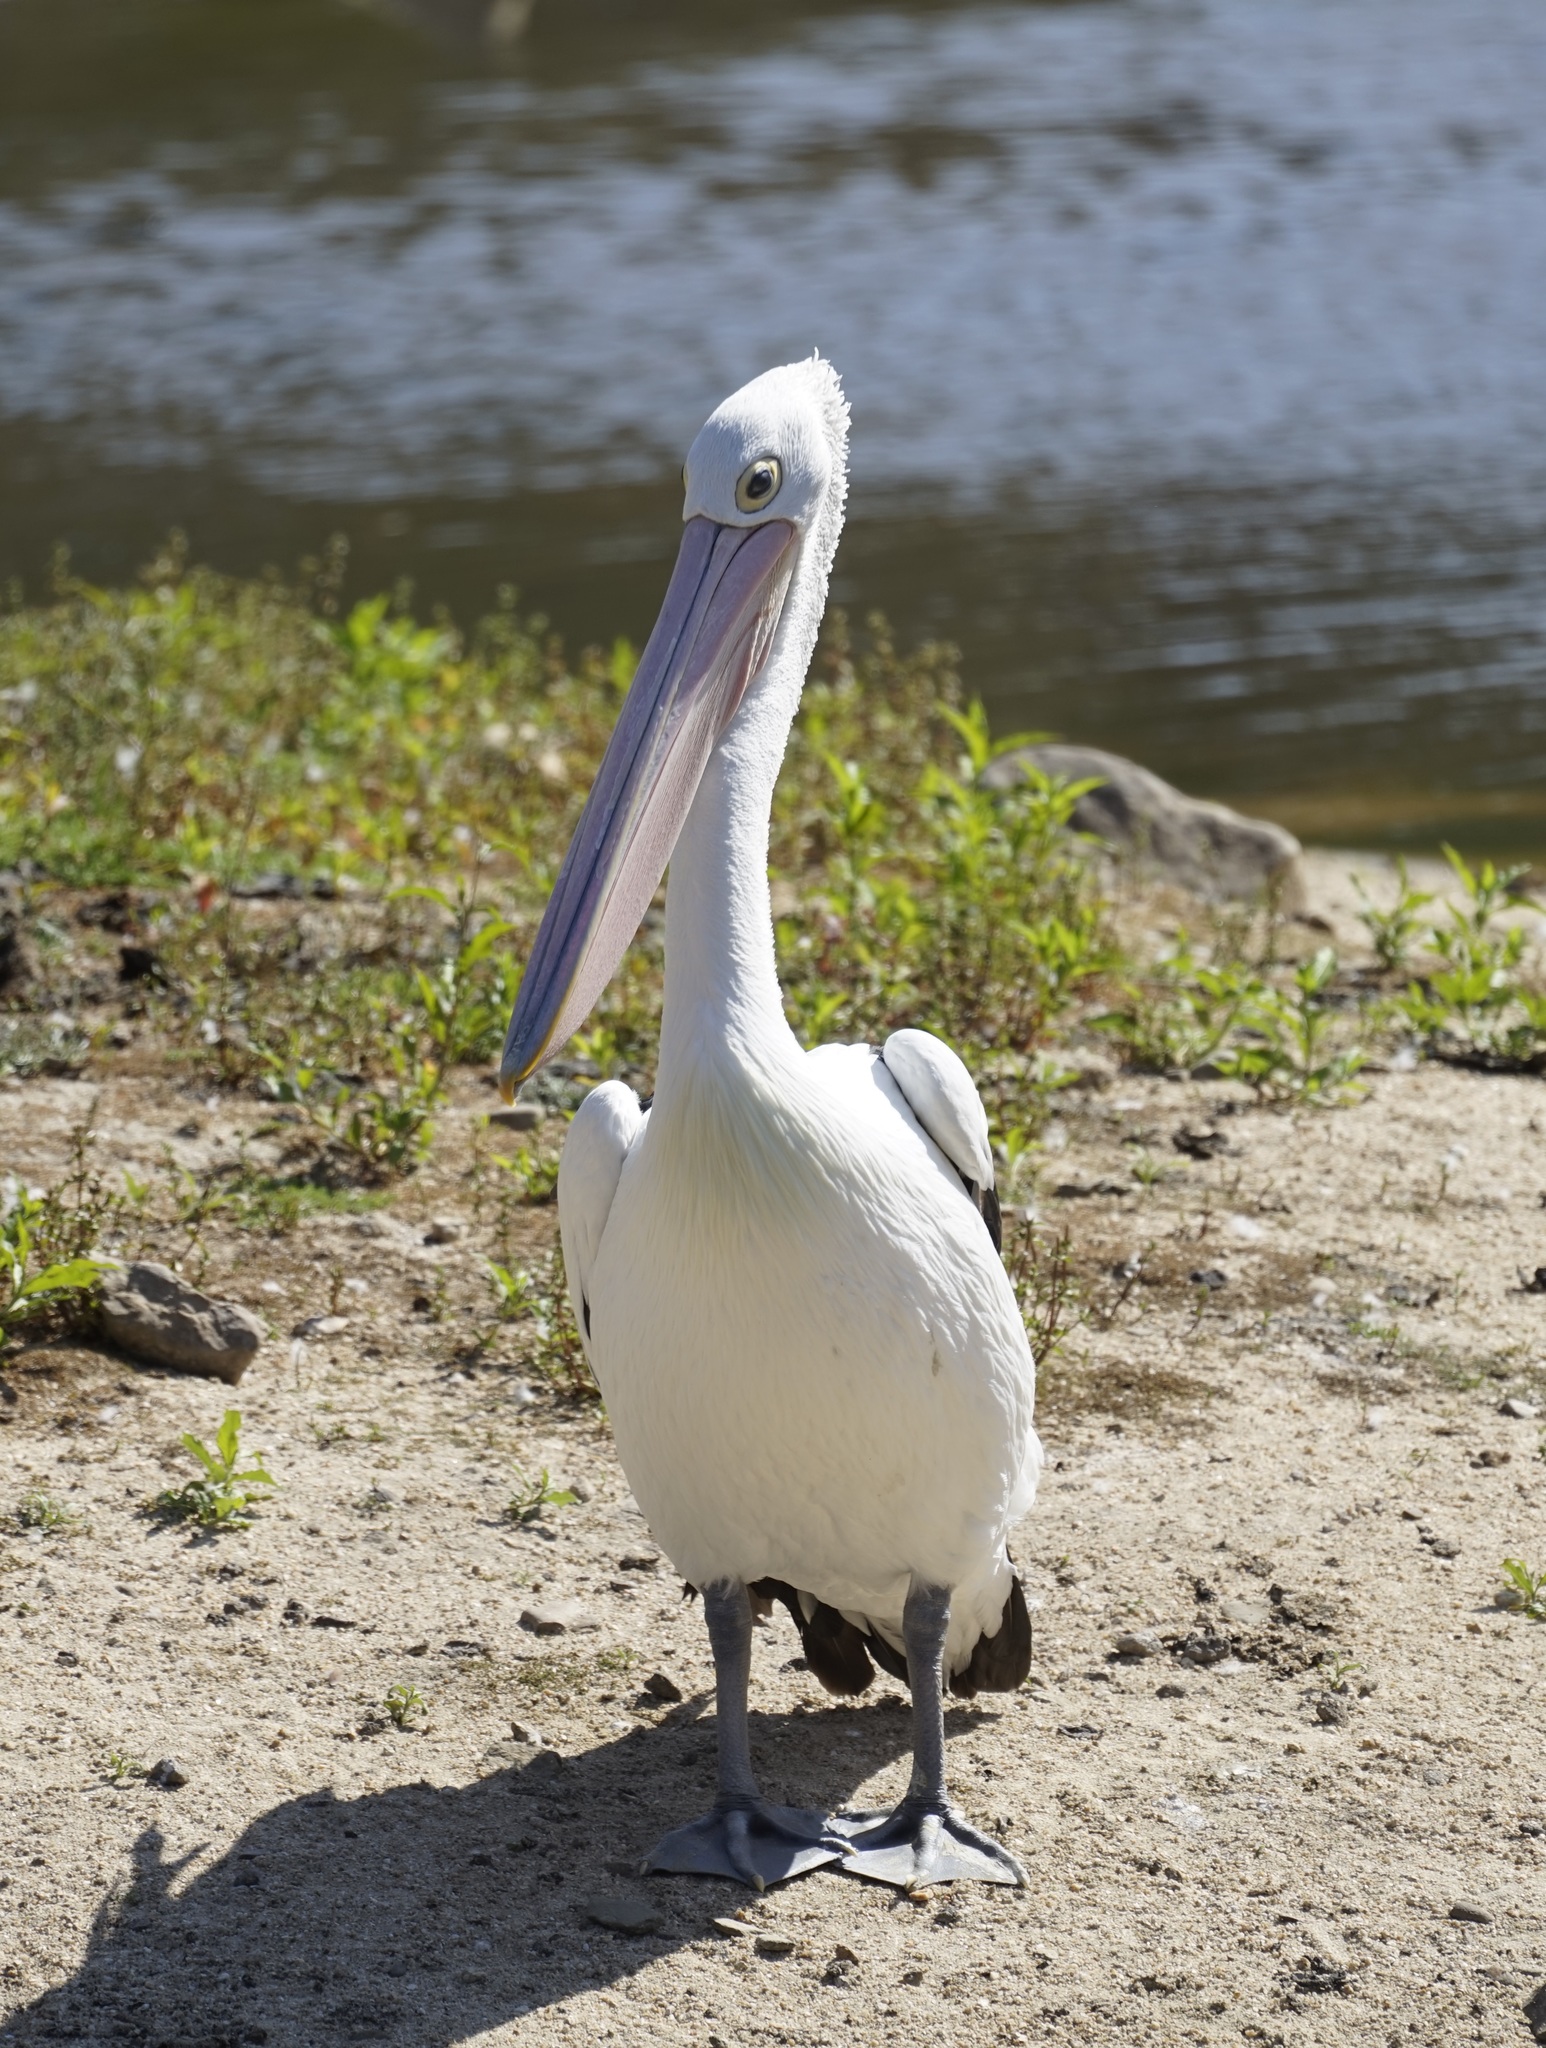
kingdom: Animalia
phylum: Chordata
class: Aves
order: Pelecaniformes
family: Pelecanidae
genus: Pelecanus
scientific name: Pelecanus conspicillatus
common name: Australian pelican
